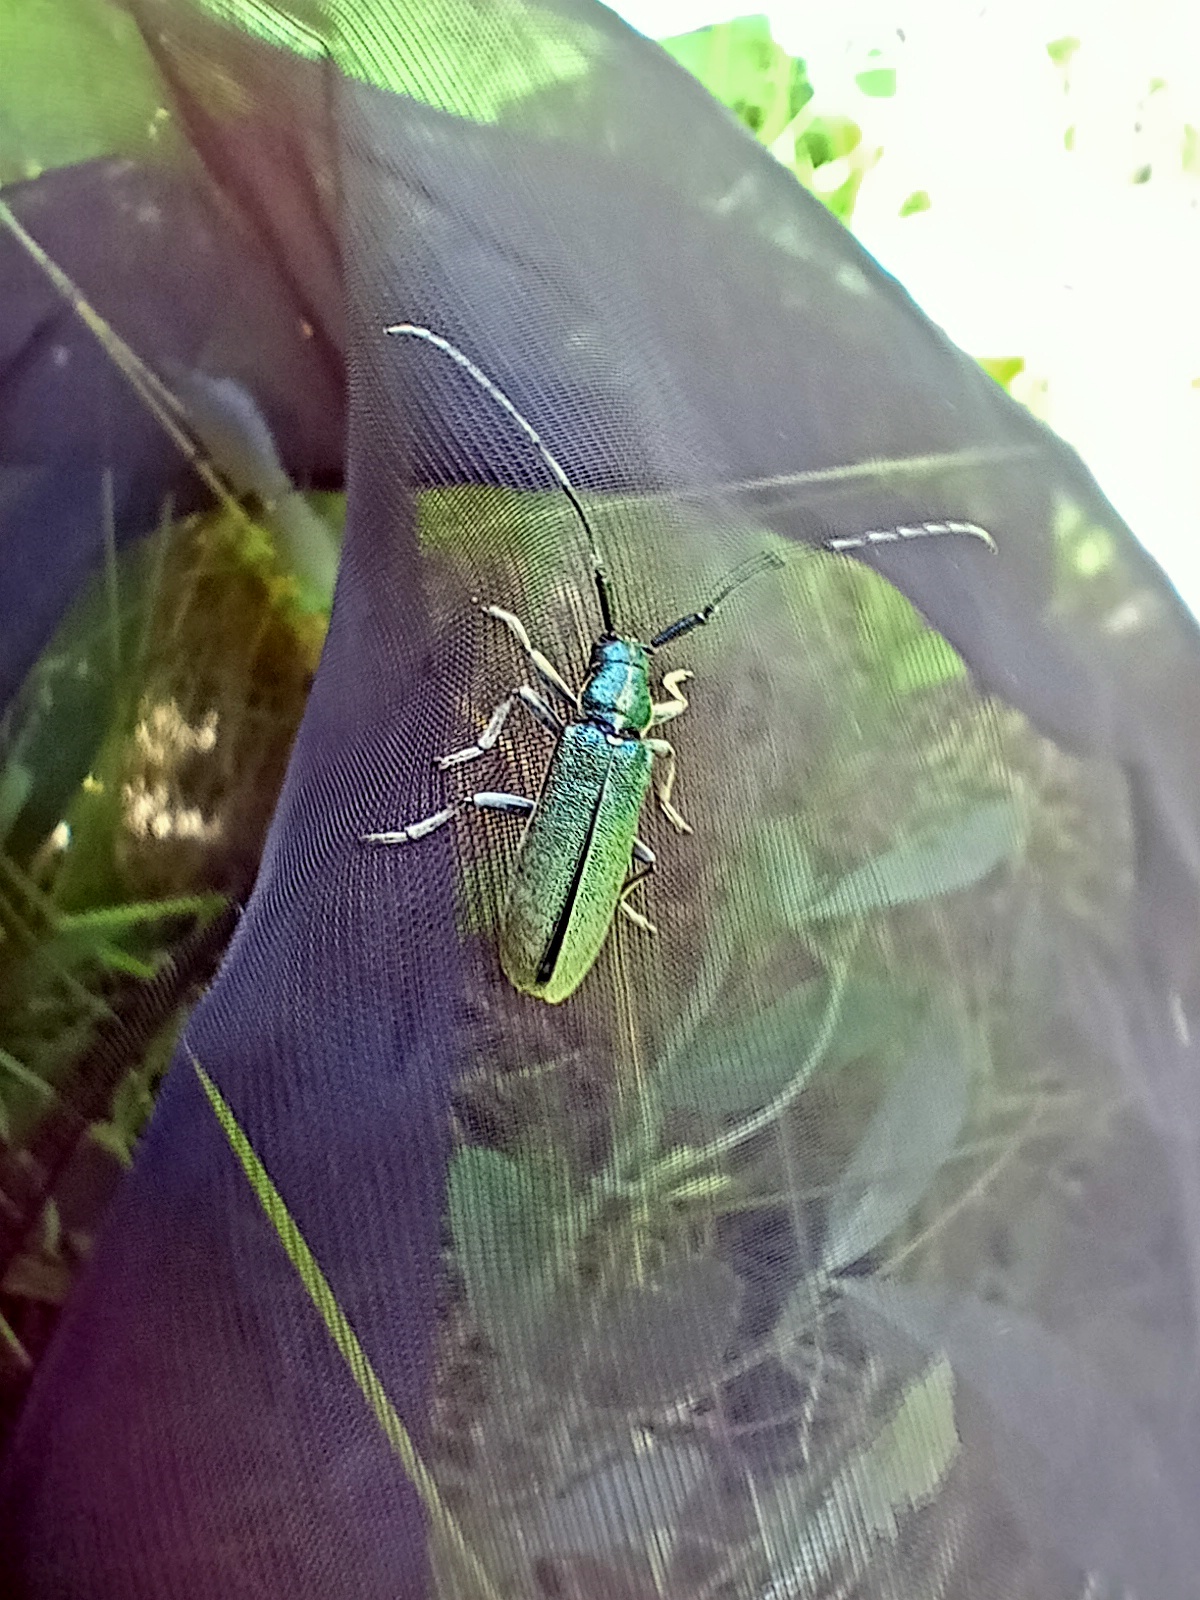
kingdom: Animalia
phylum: Arthropoda
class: Insecta
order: Coleoptera
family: Cerambycidae
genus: Agapanthia
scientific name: Agapanthia viti
